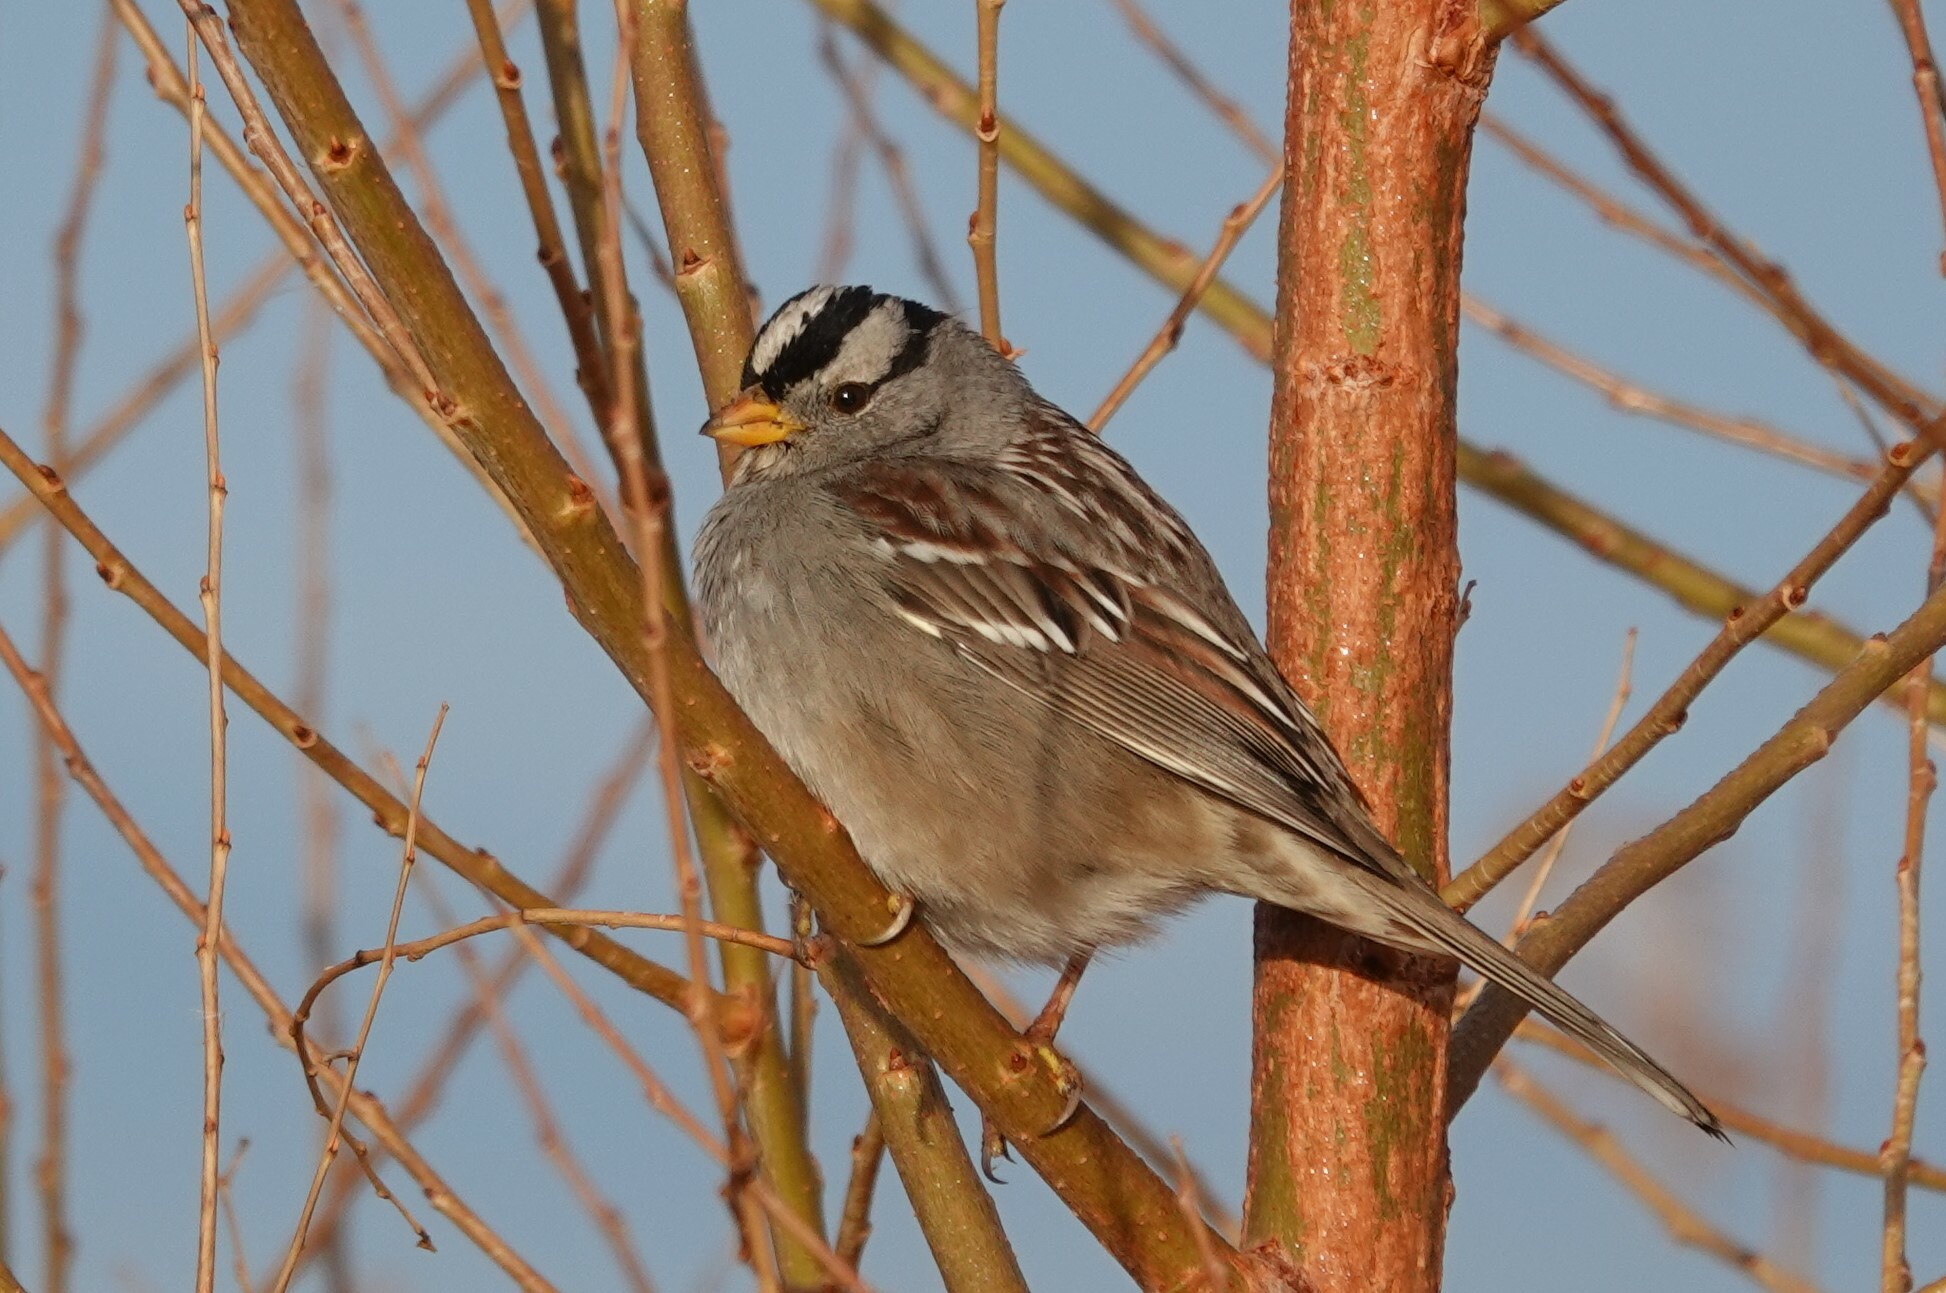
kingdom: Animalia
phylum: Chordata
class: Aves
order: Passeriformes
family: Passerellidae
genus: Zonotrichia
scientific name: Zonotrichia leucophrys
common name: White-crowned sparrow
